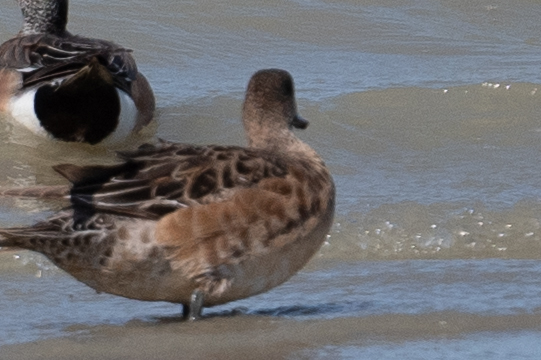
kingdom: Animalia
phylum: Chordata
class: Aves
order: Anseriformes
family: Anatidae
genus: Mareca
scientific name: Mareca americana
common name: American wigeon
